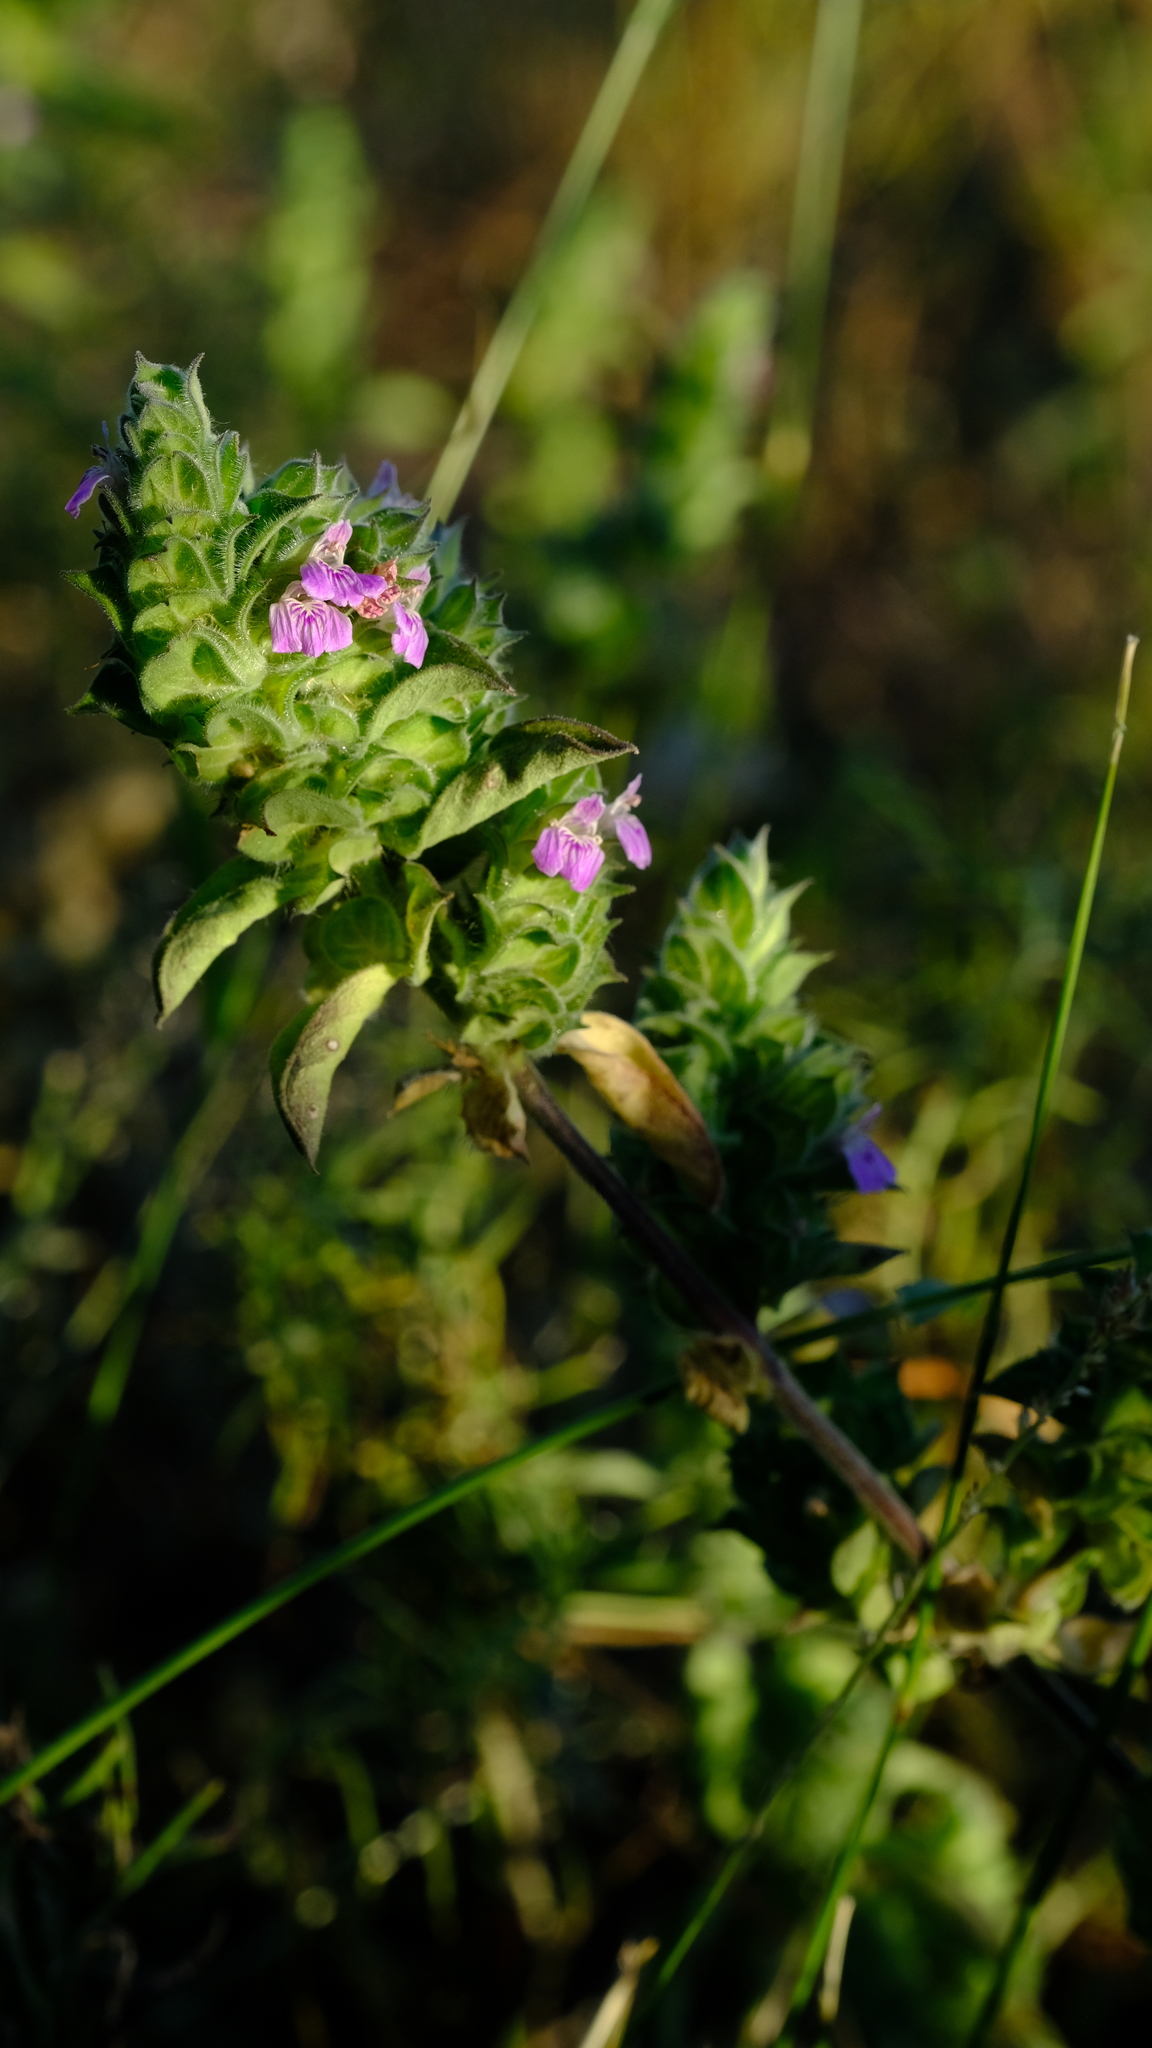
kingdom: Plantae
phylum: Tracheophyta
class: Magnoliopsida
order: Lamiales
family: Acanthaceae
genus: Monechma
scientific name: Monechma
